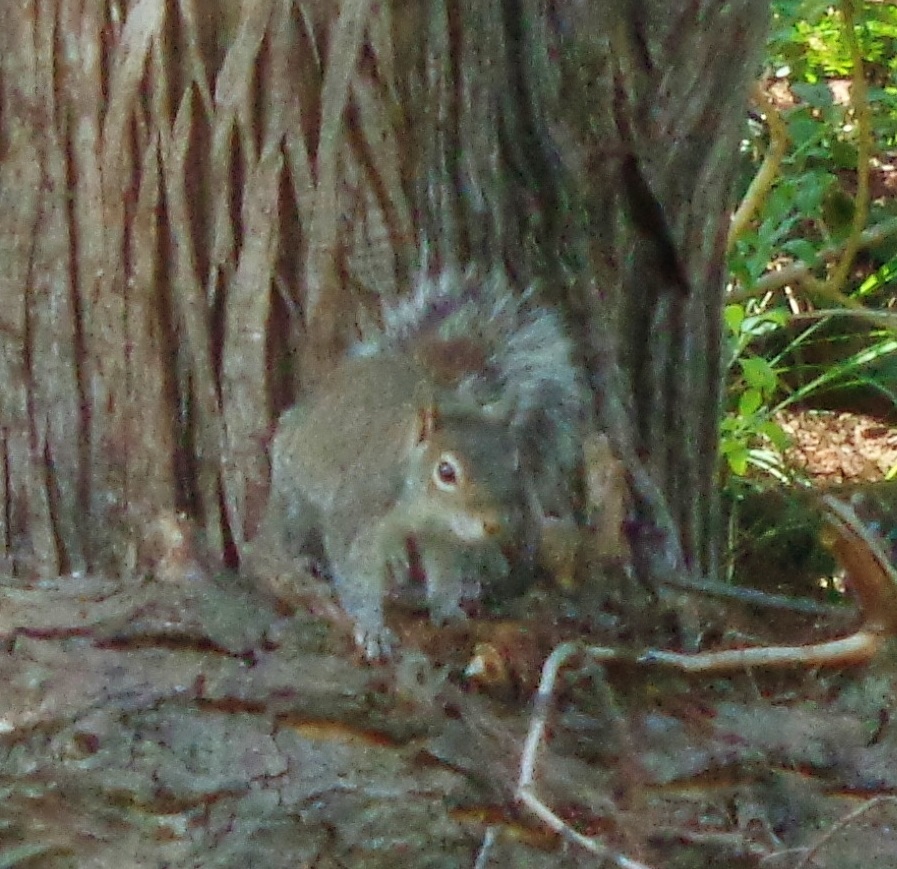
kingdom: Animalia
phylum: Chordata
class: Mammalia
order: Rodentia
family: Sciuridae
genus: Sciurus
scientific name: Sciurus alleni
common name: Allen's squirrel
